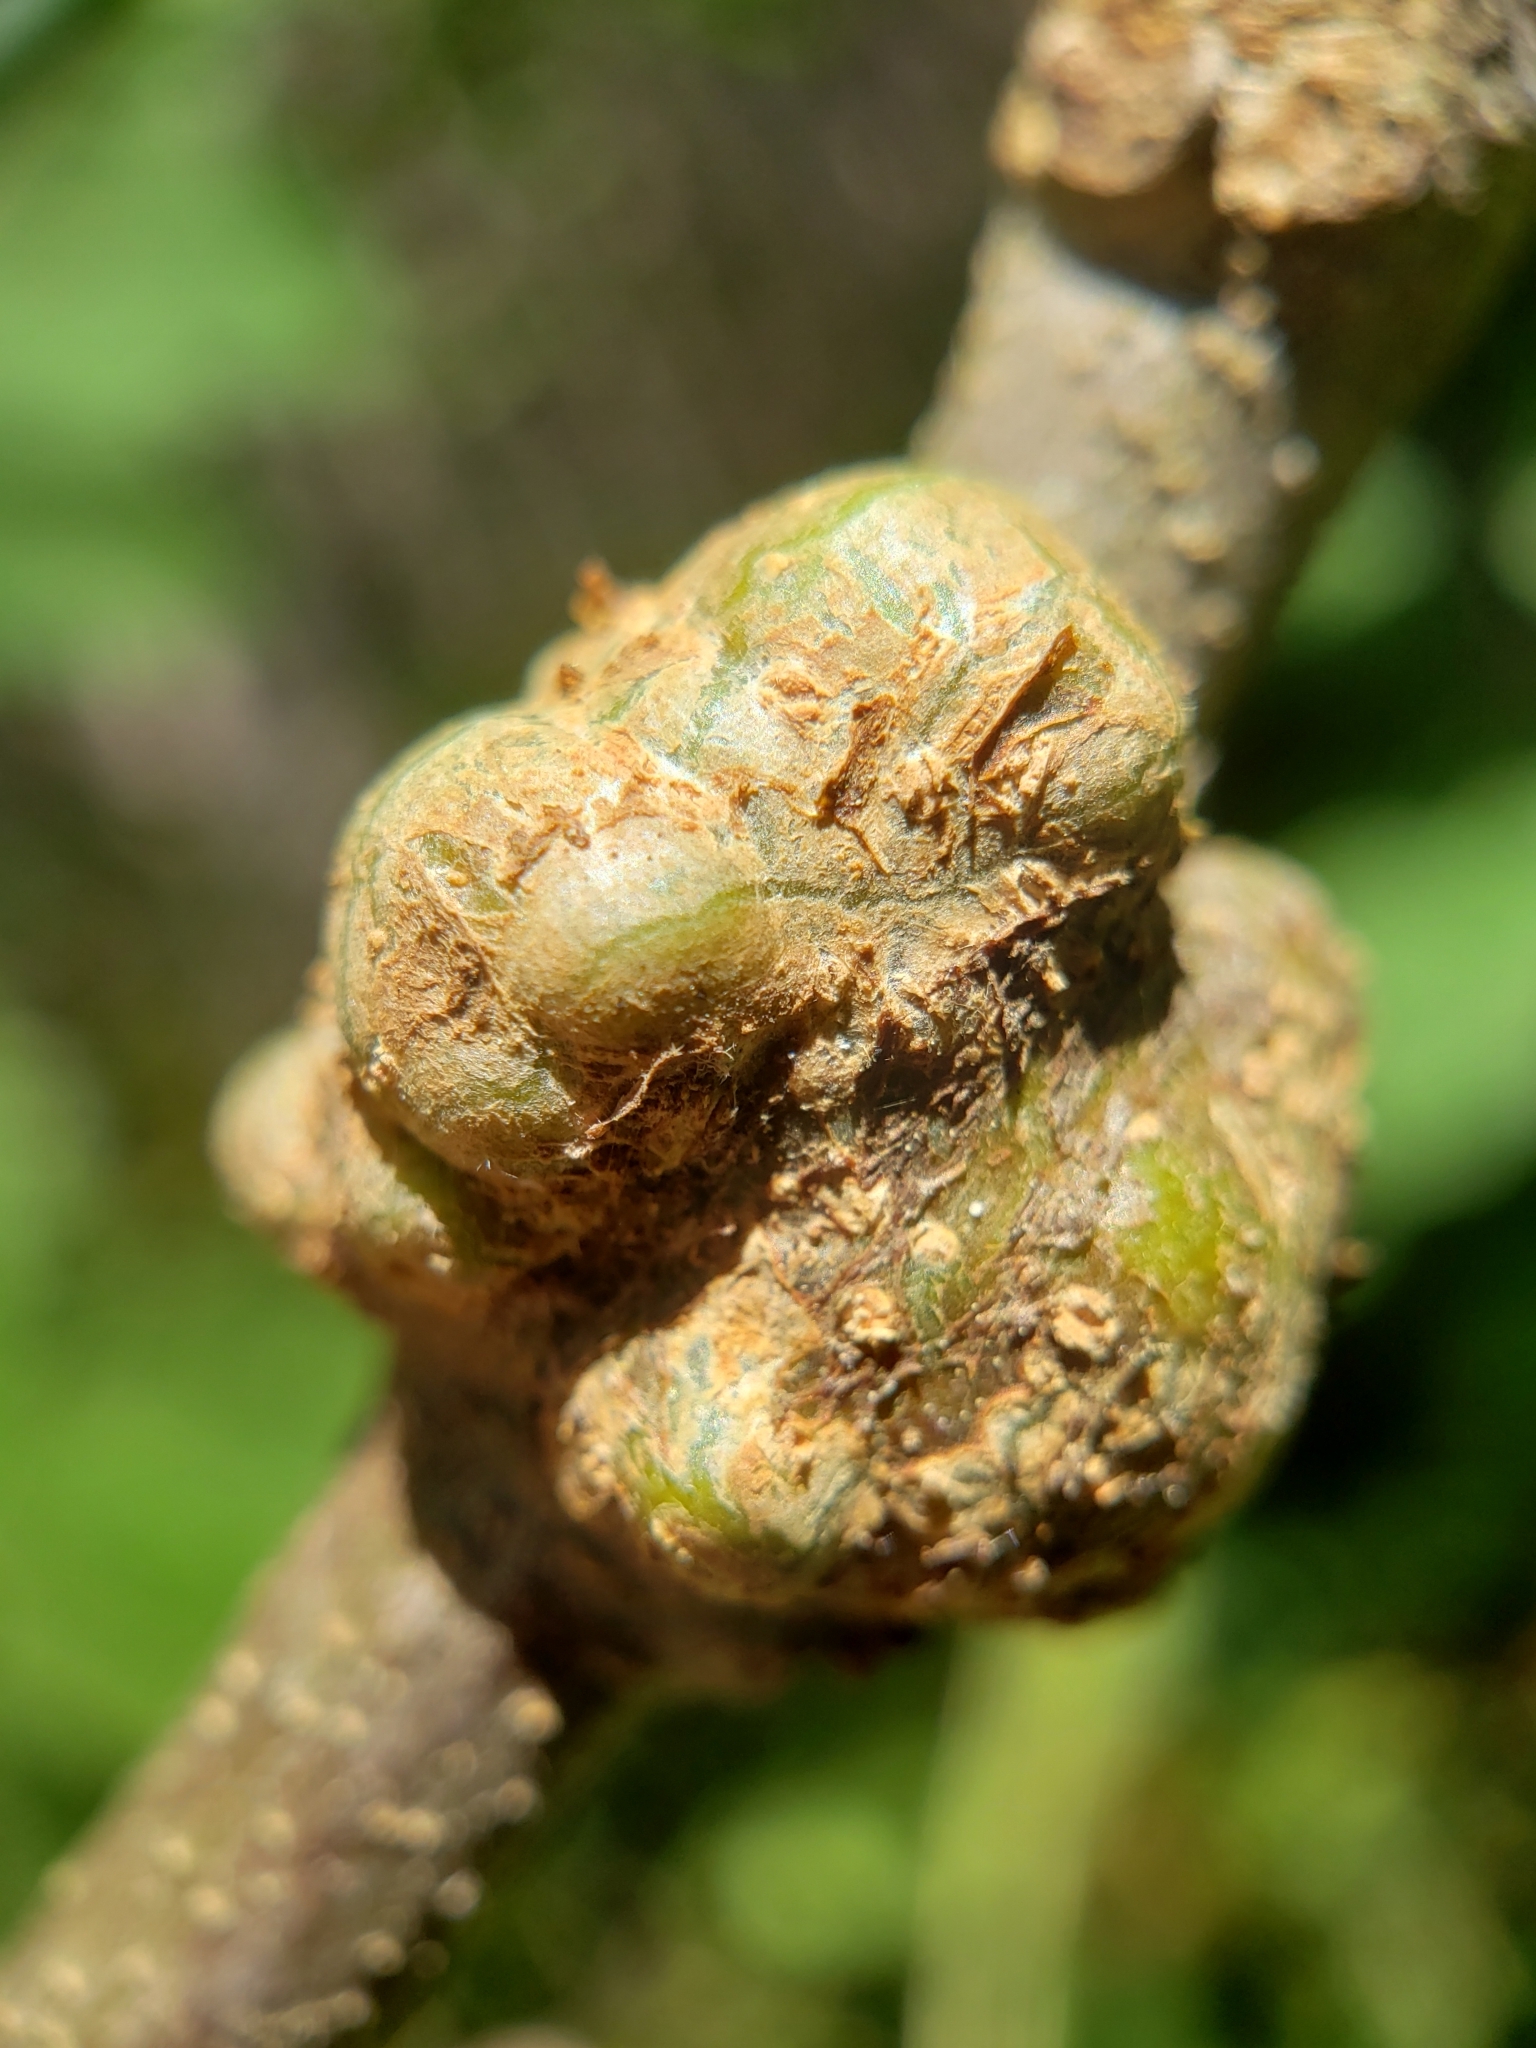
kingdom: Animalia
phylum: Arthropoda
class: Insecta
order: Hymenoptera
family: Cynipidae
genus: Callirhytis
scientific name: Callirhytis
